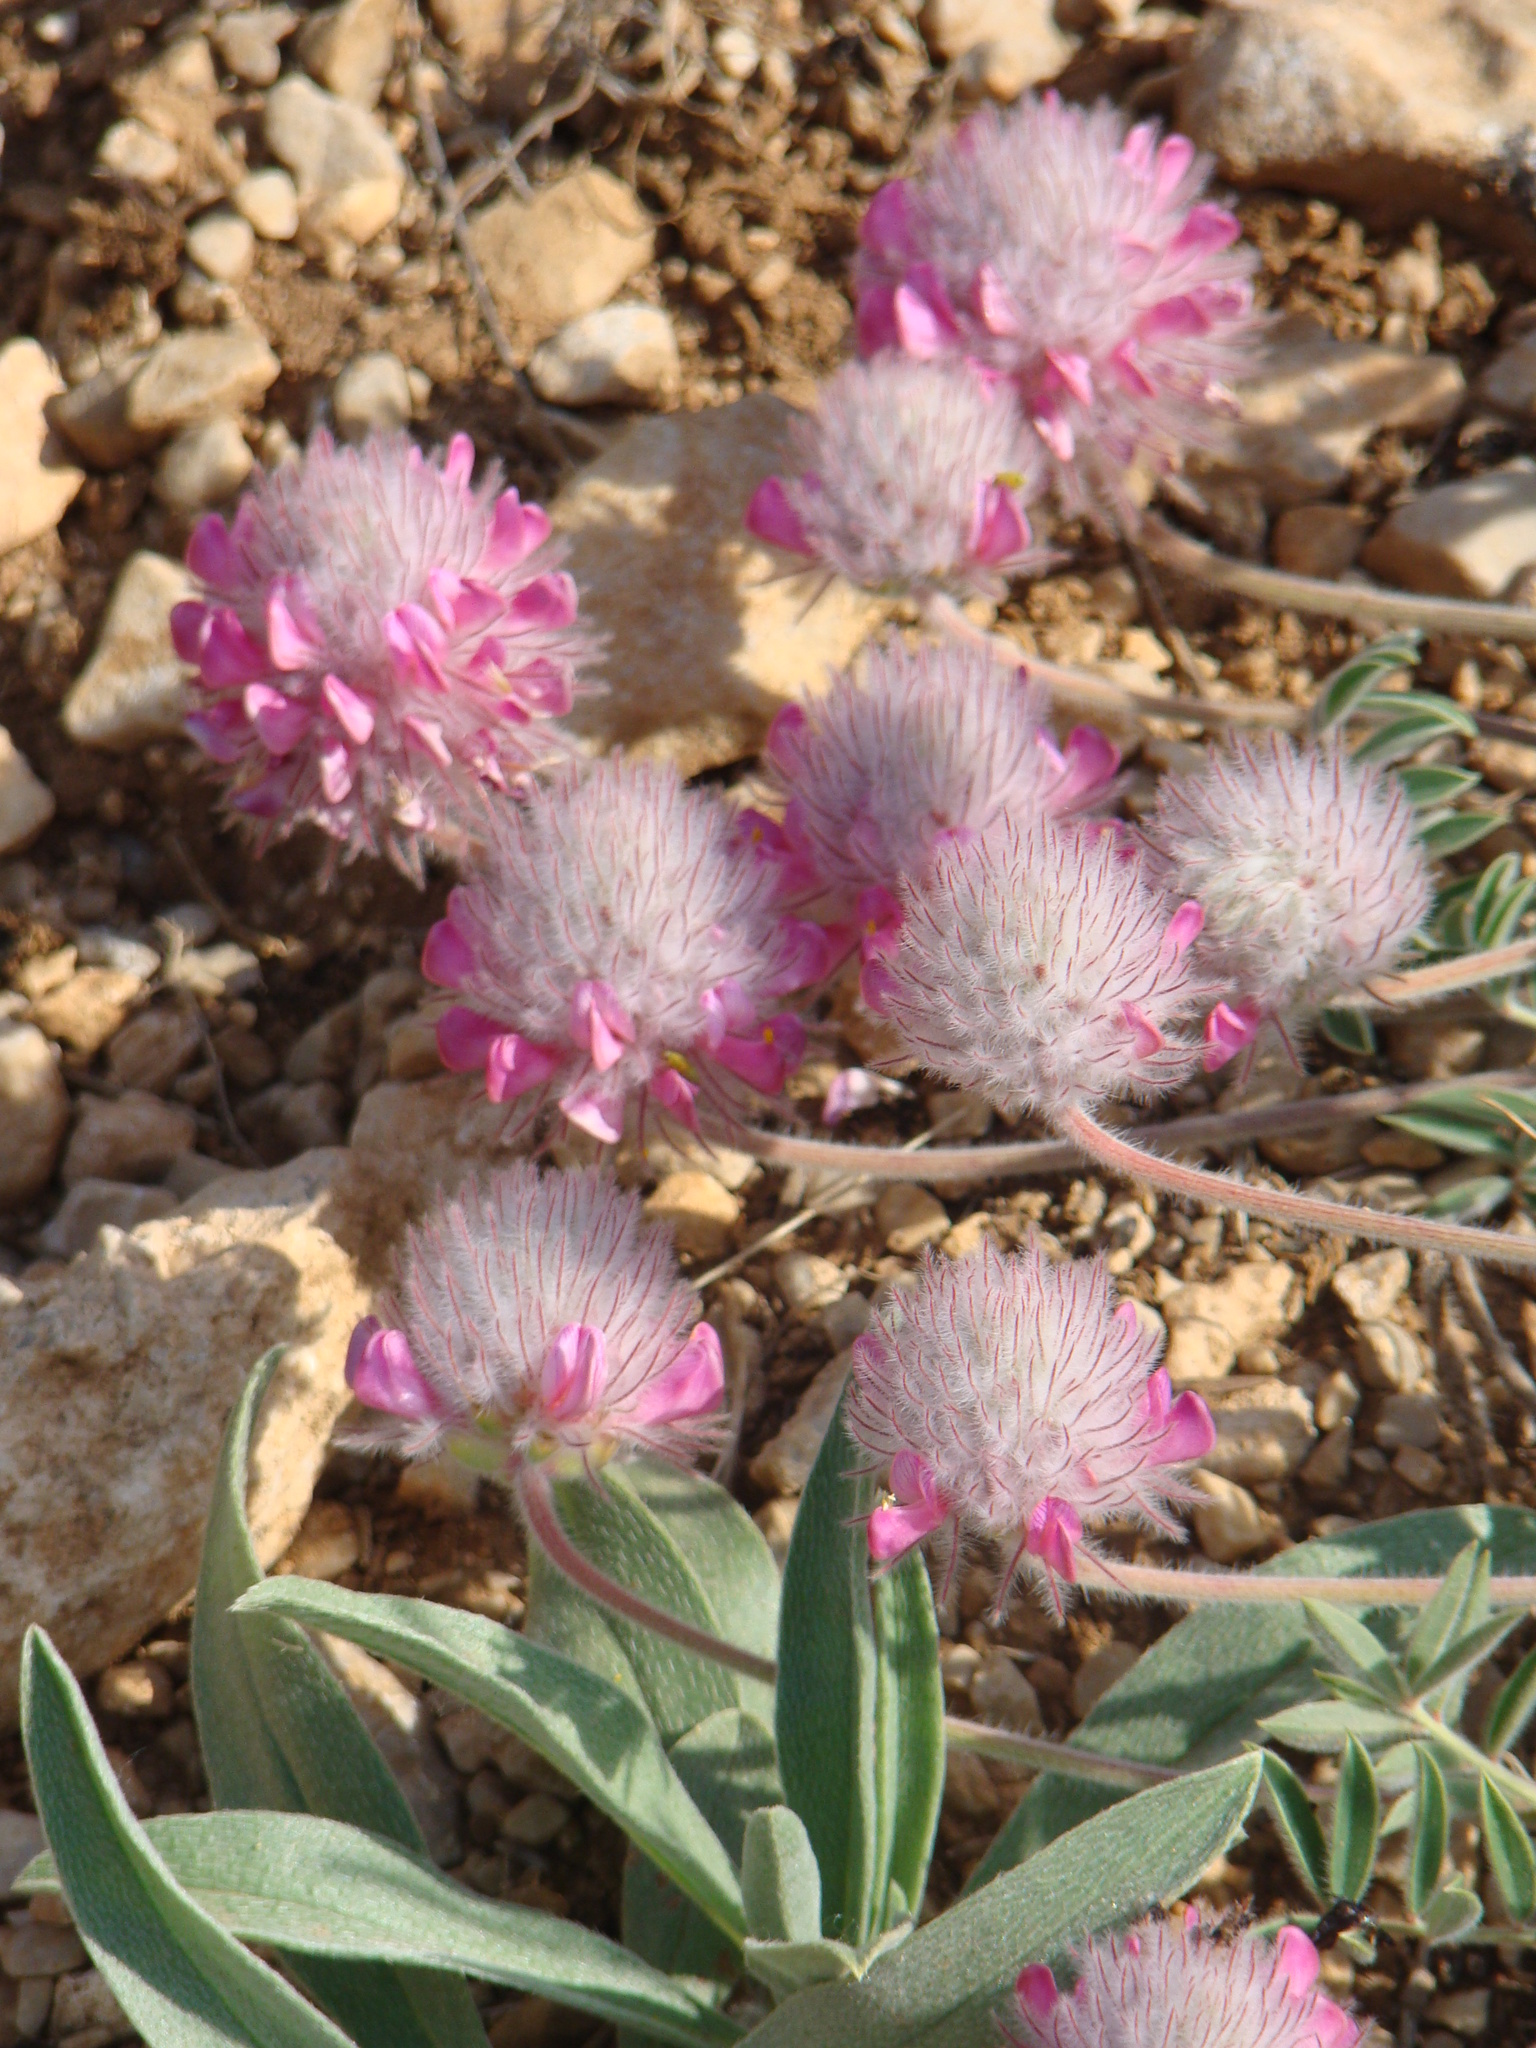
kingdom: Plantae
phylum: Tracheophyta
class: Magnoliopsida
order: Fabales
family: Fabaceae
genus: Ebenus
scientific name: Ebenus laguroides
